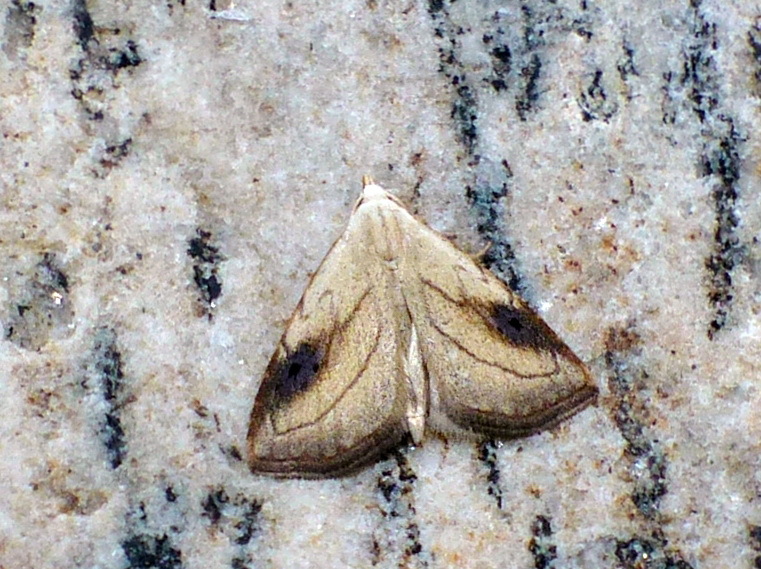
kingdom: Animalia
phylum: Arthropoda
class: Insecta
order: Lepidoptera
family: Erebidae
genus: Rivula
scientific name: Rivula propinqualis
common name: Spotted grass moth
